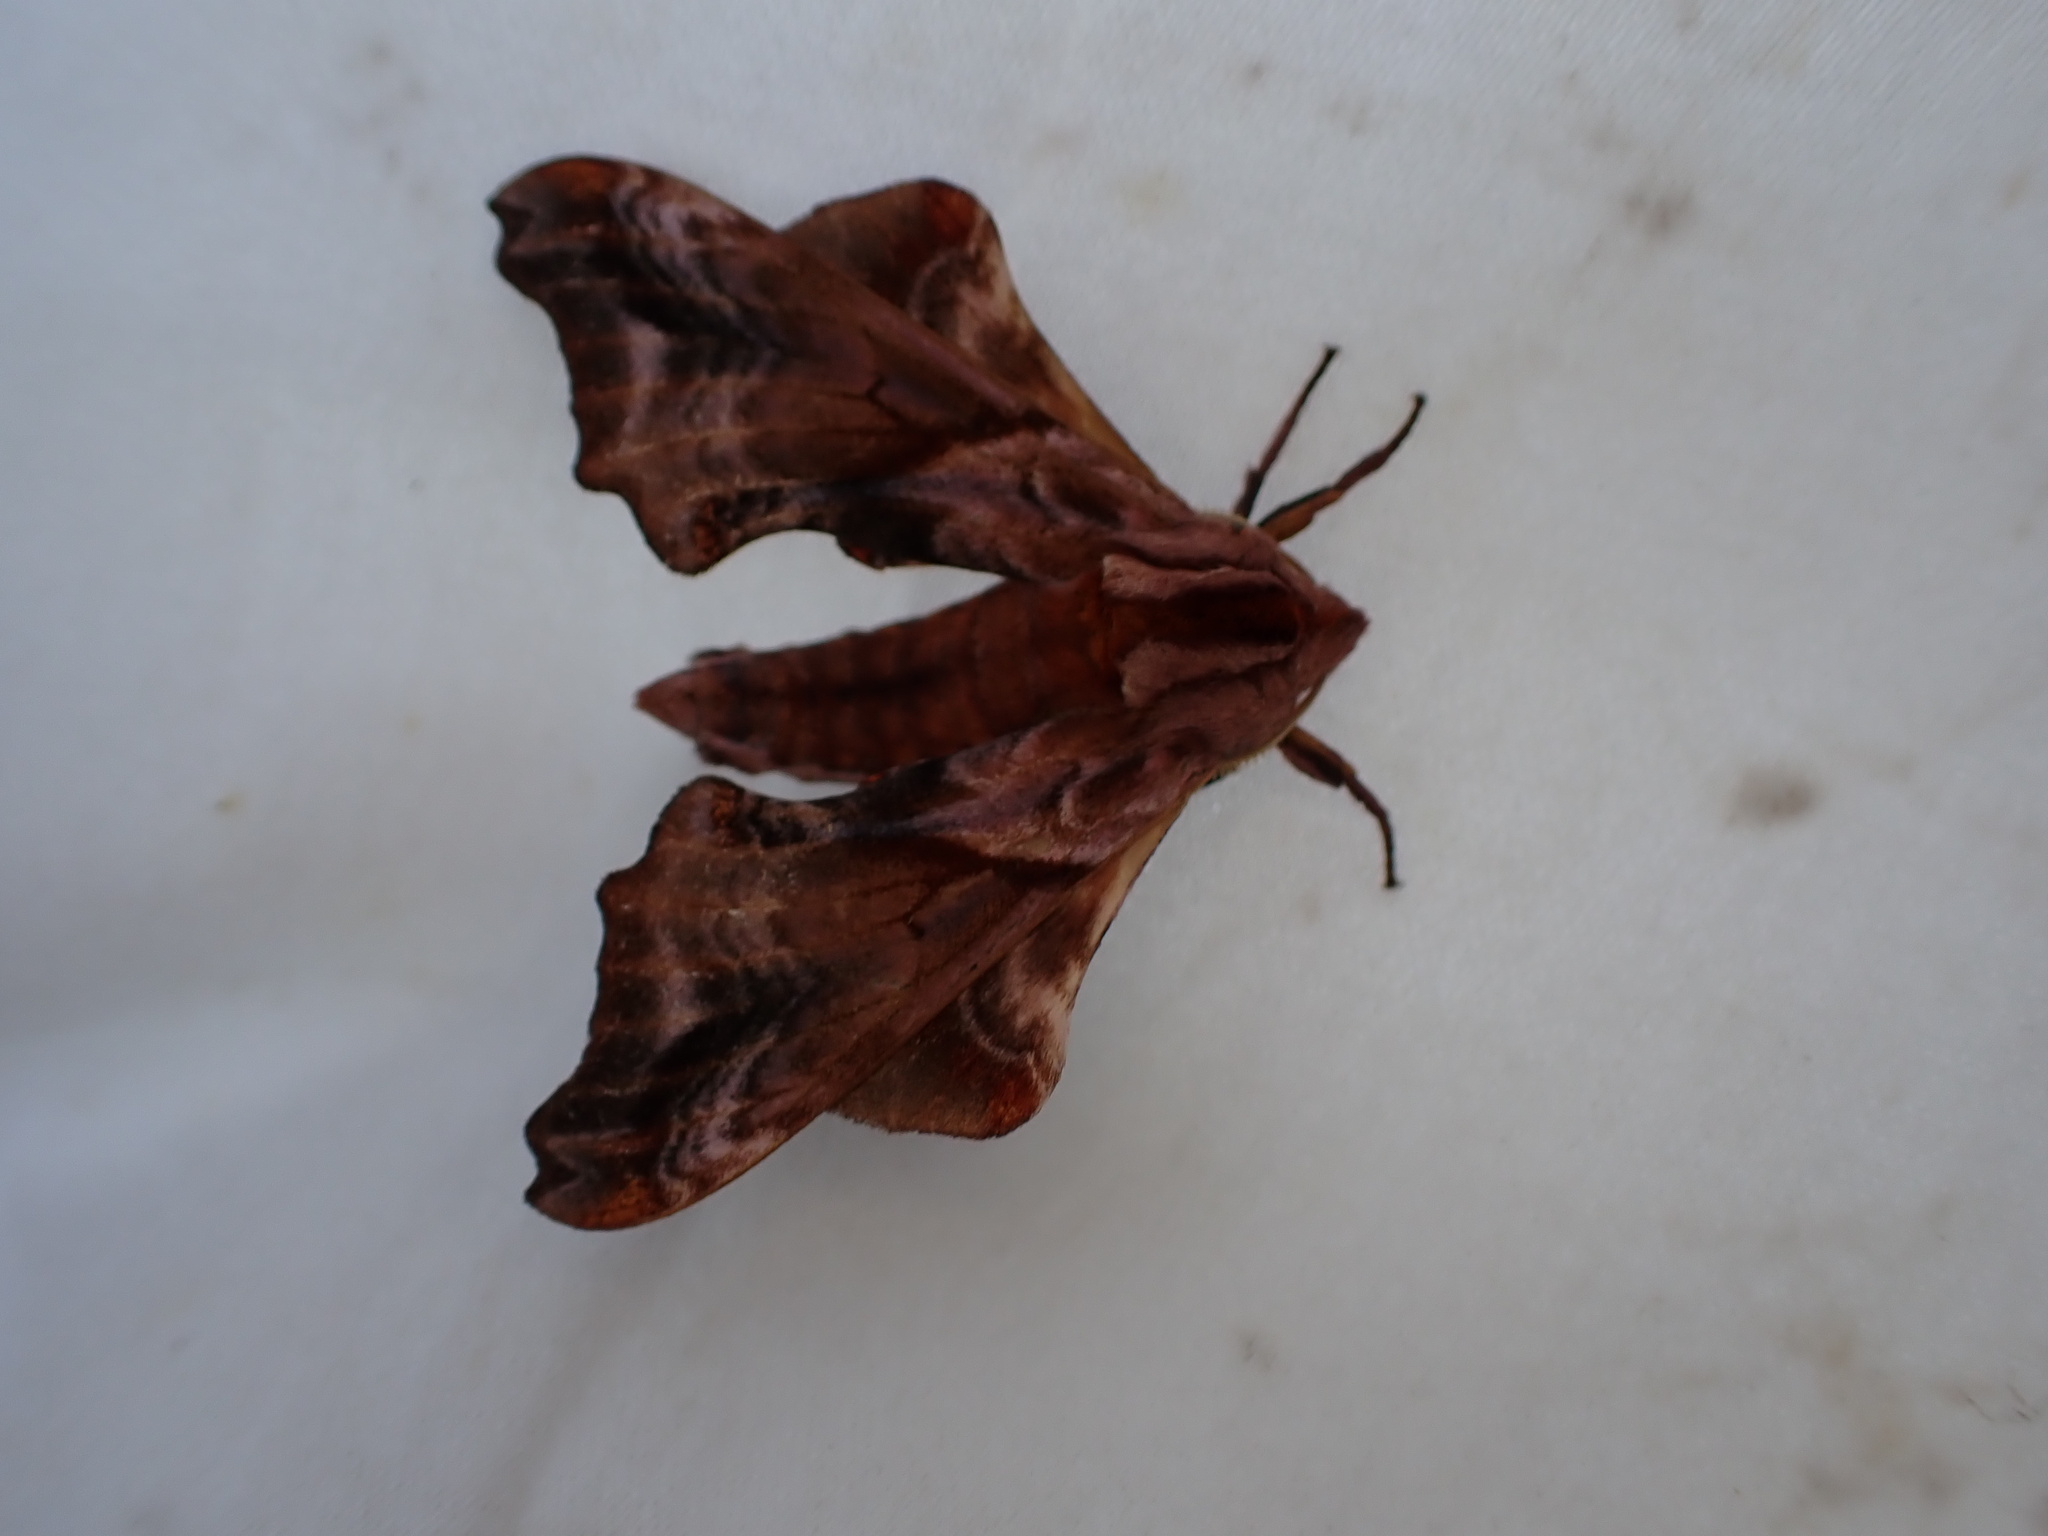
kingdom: Animalia
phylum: Arthropoda
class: Insecta
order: Lepidoptera
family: Sphingidae
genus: Paonias
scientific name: Paonias myops
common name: Small-eyed sphinx
